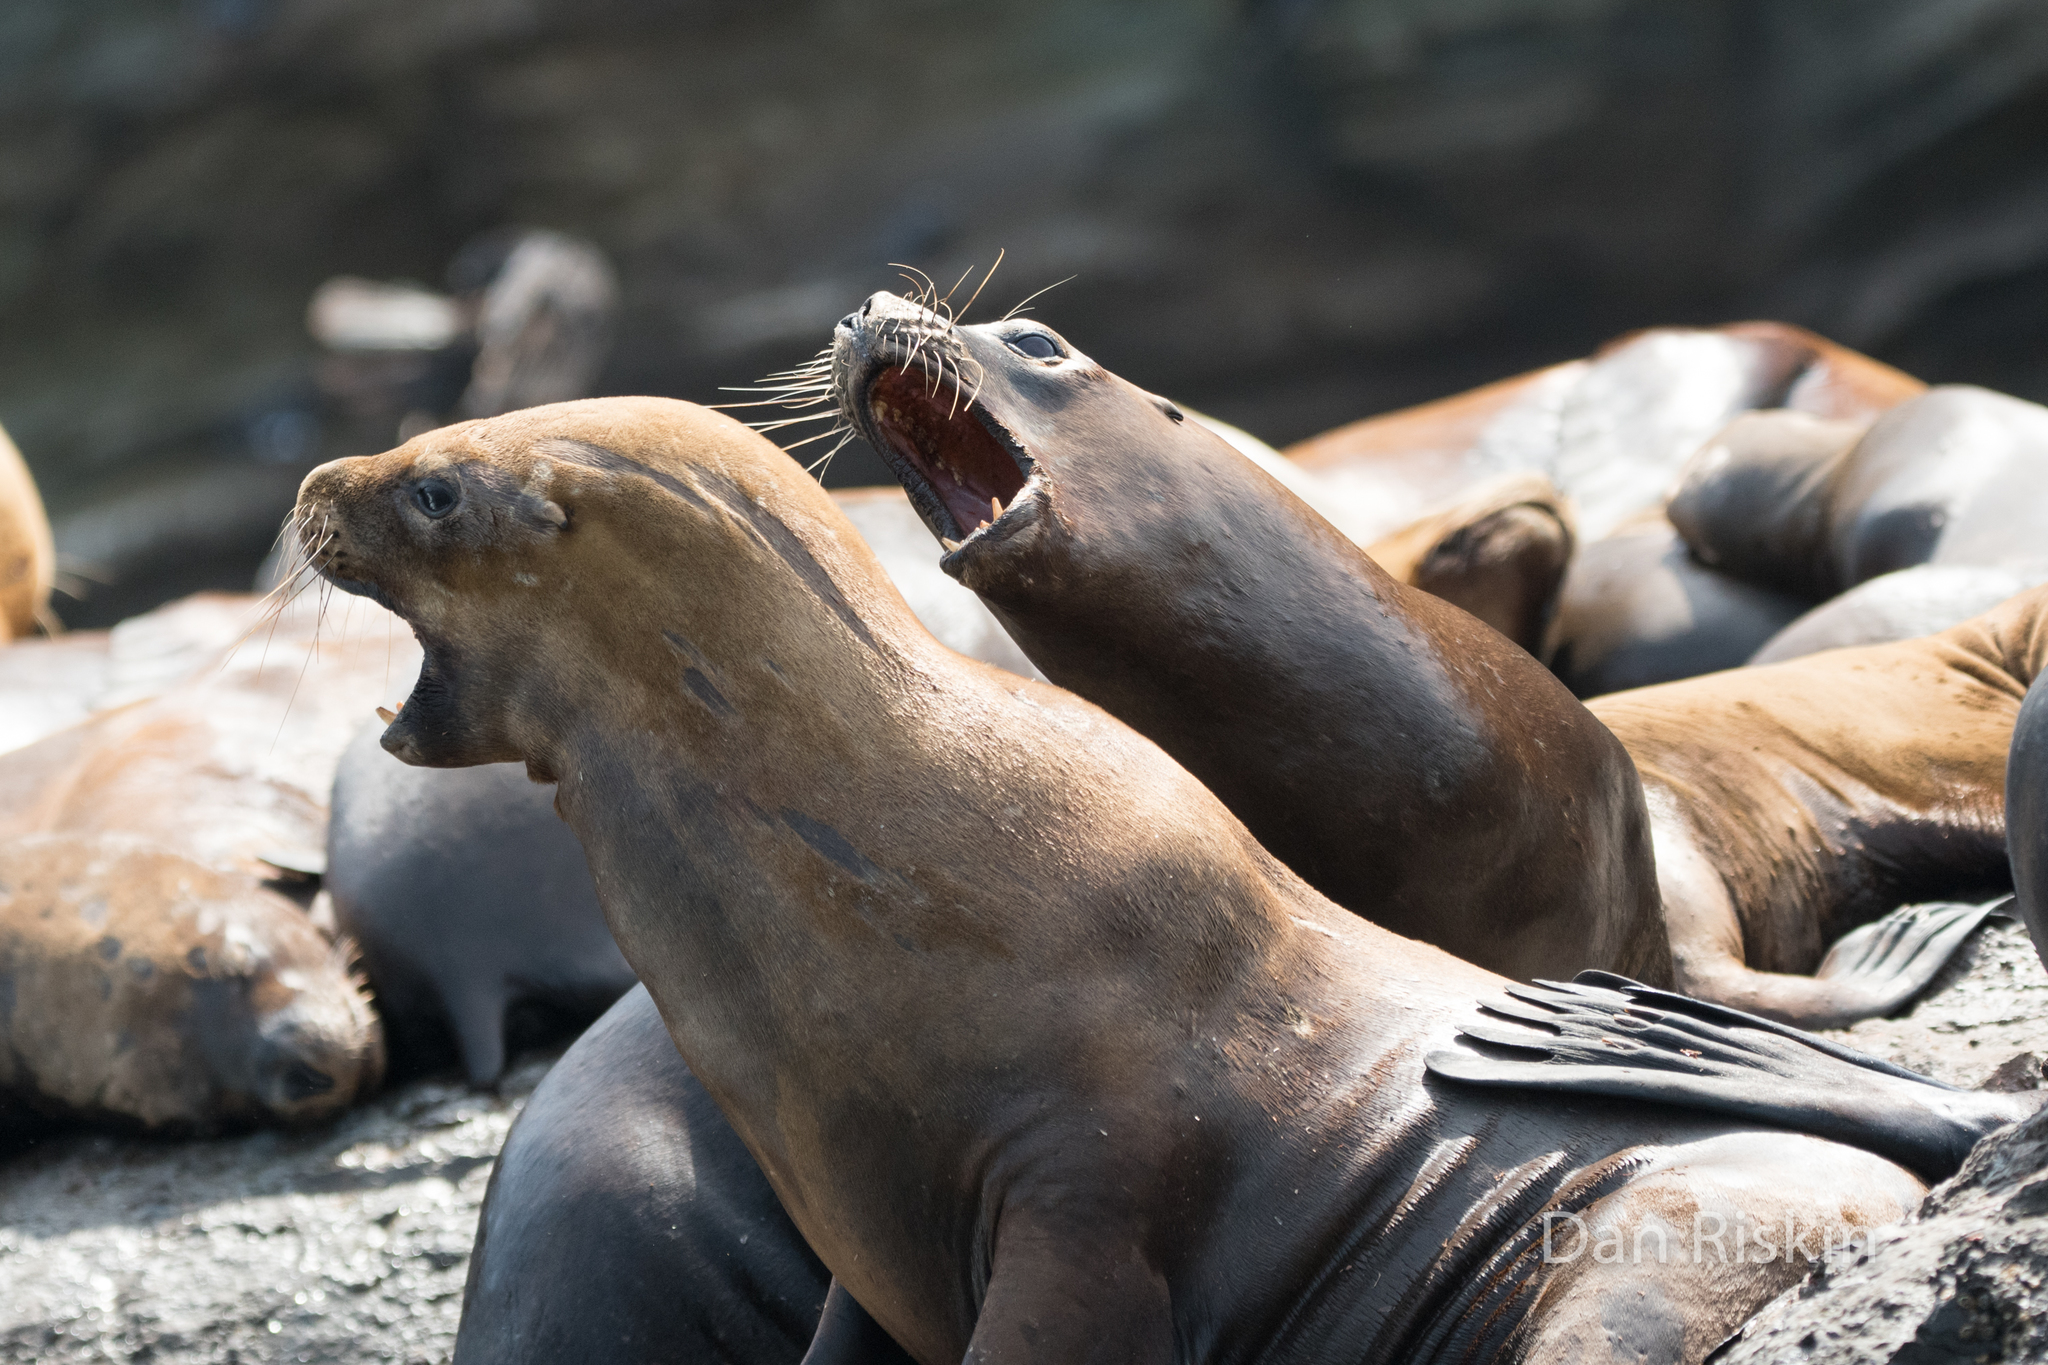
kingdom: Animalia
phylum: Chordata
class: Mammalia
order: Carnivora
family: Otariidae
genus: Otaria
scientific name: Otaria byronia
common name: South american sea lion
